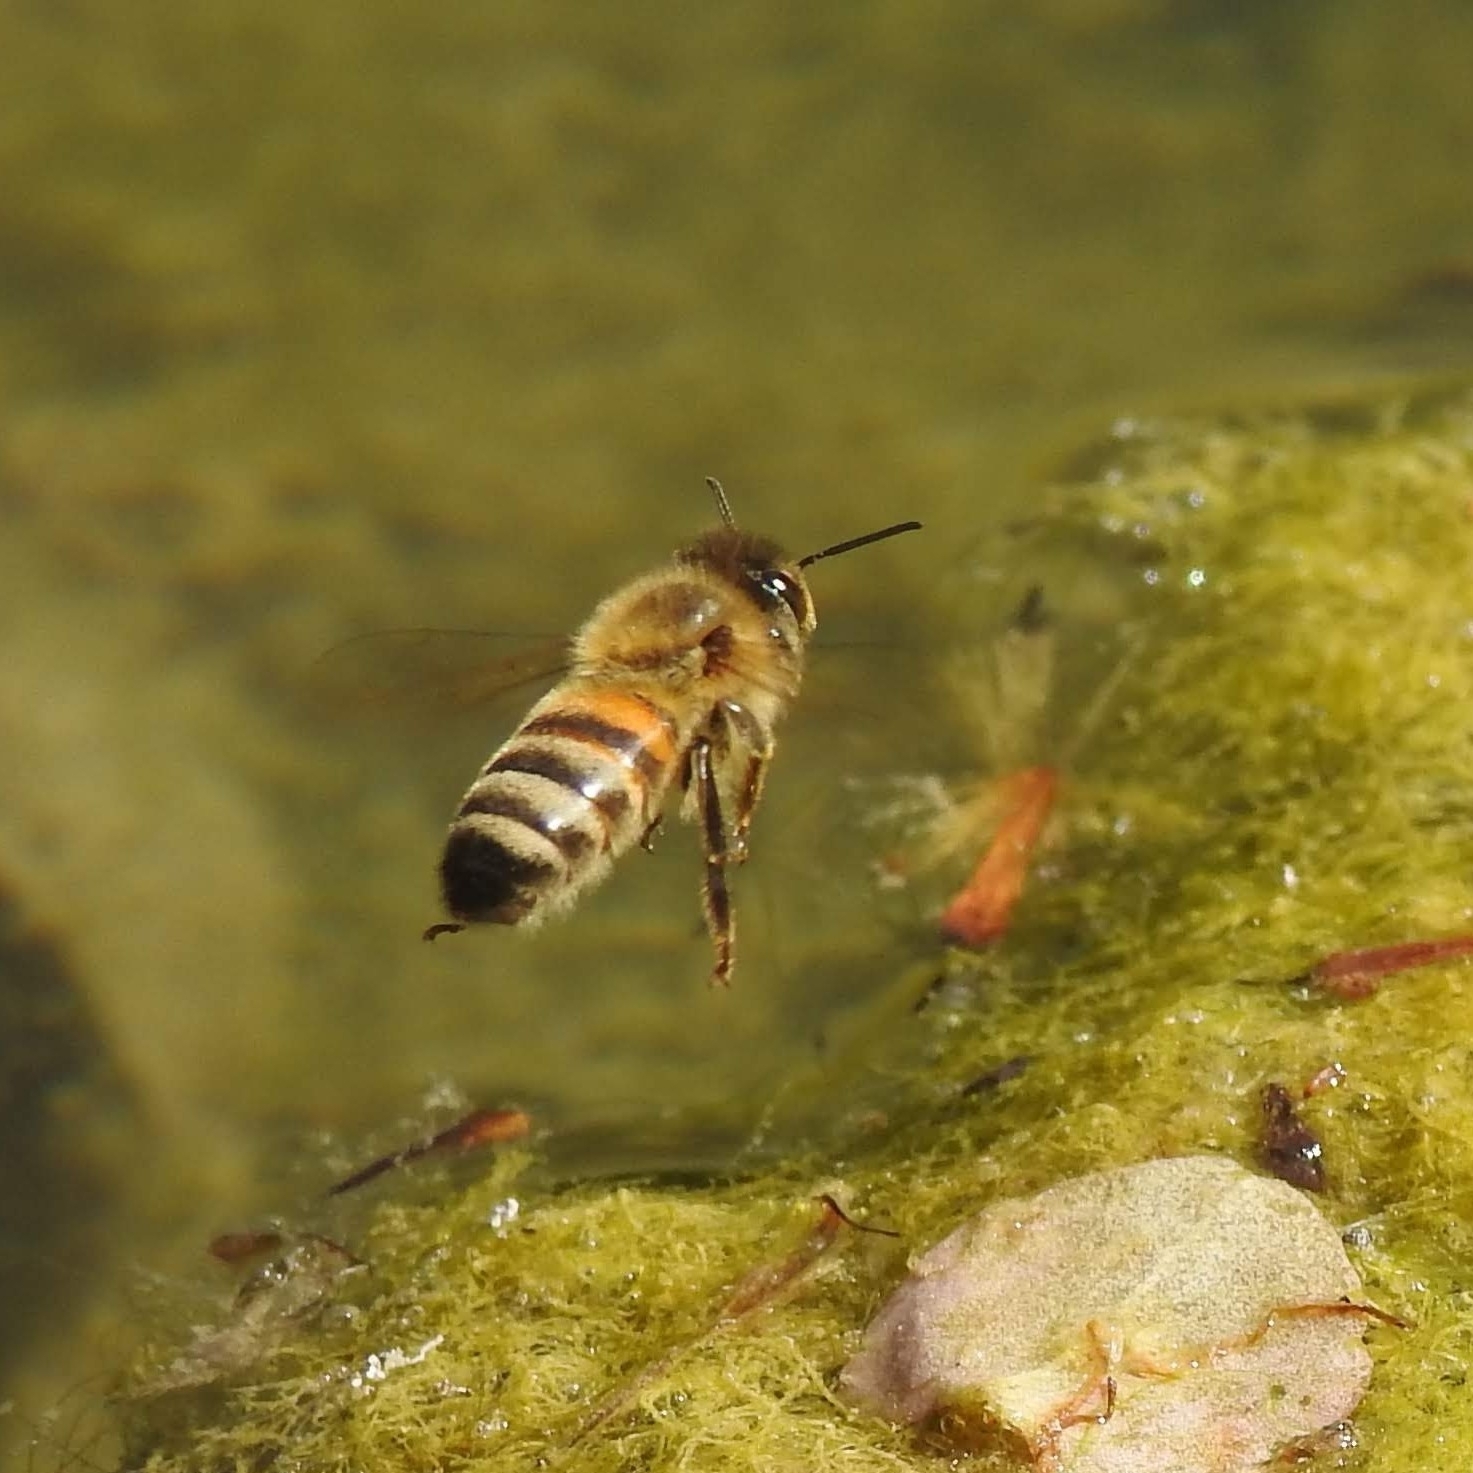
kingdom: Animalia
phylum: Arthropoda
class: Insecta
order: Hymenoptera
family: Apidae
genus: Apis
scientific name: Apis mellifera
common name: Honey bee
